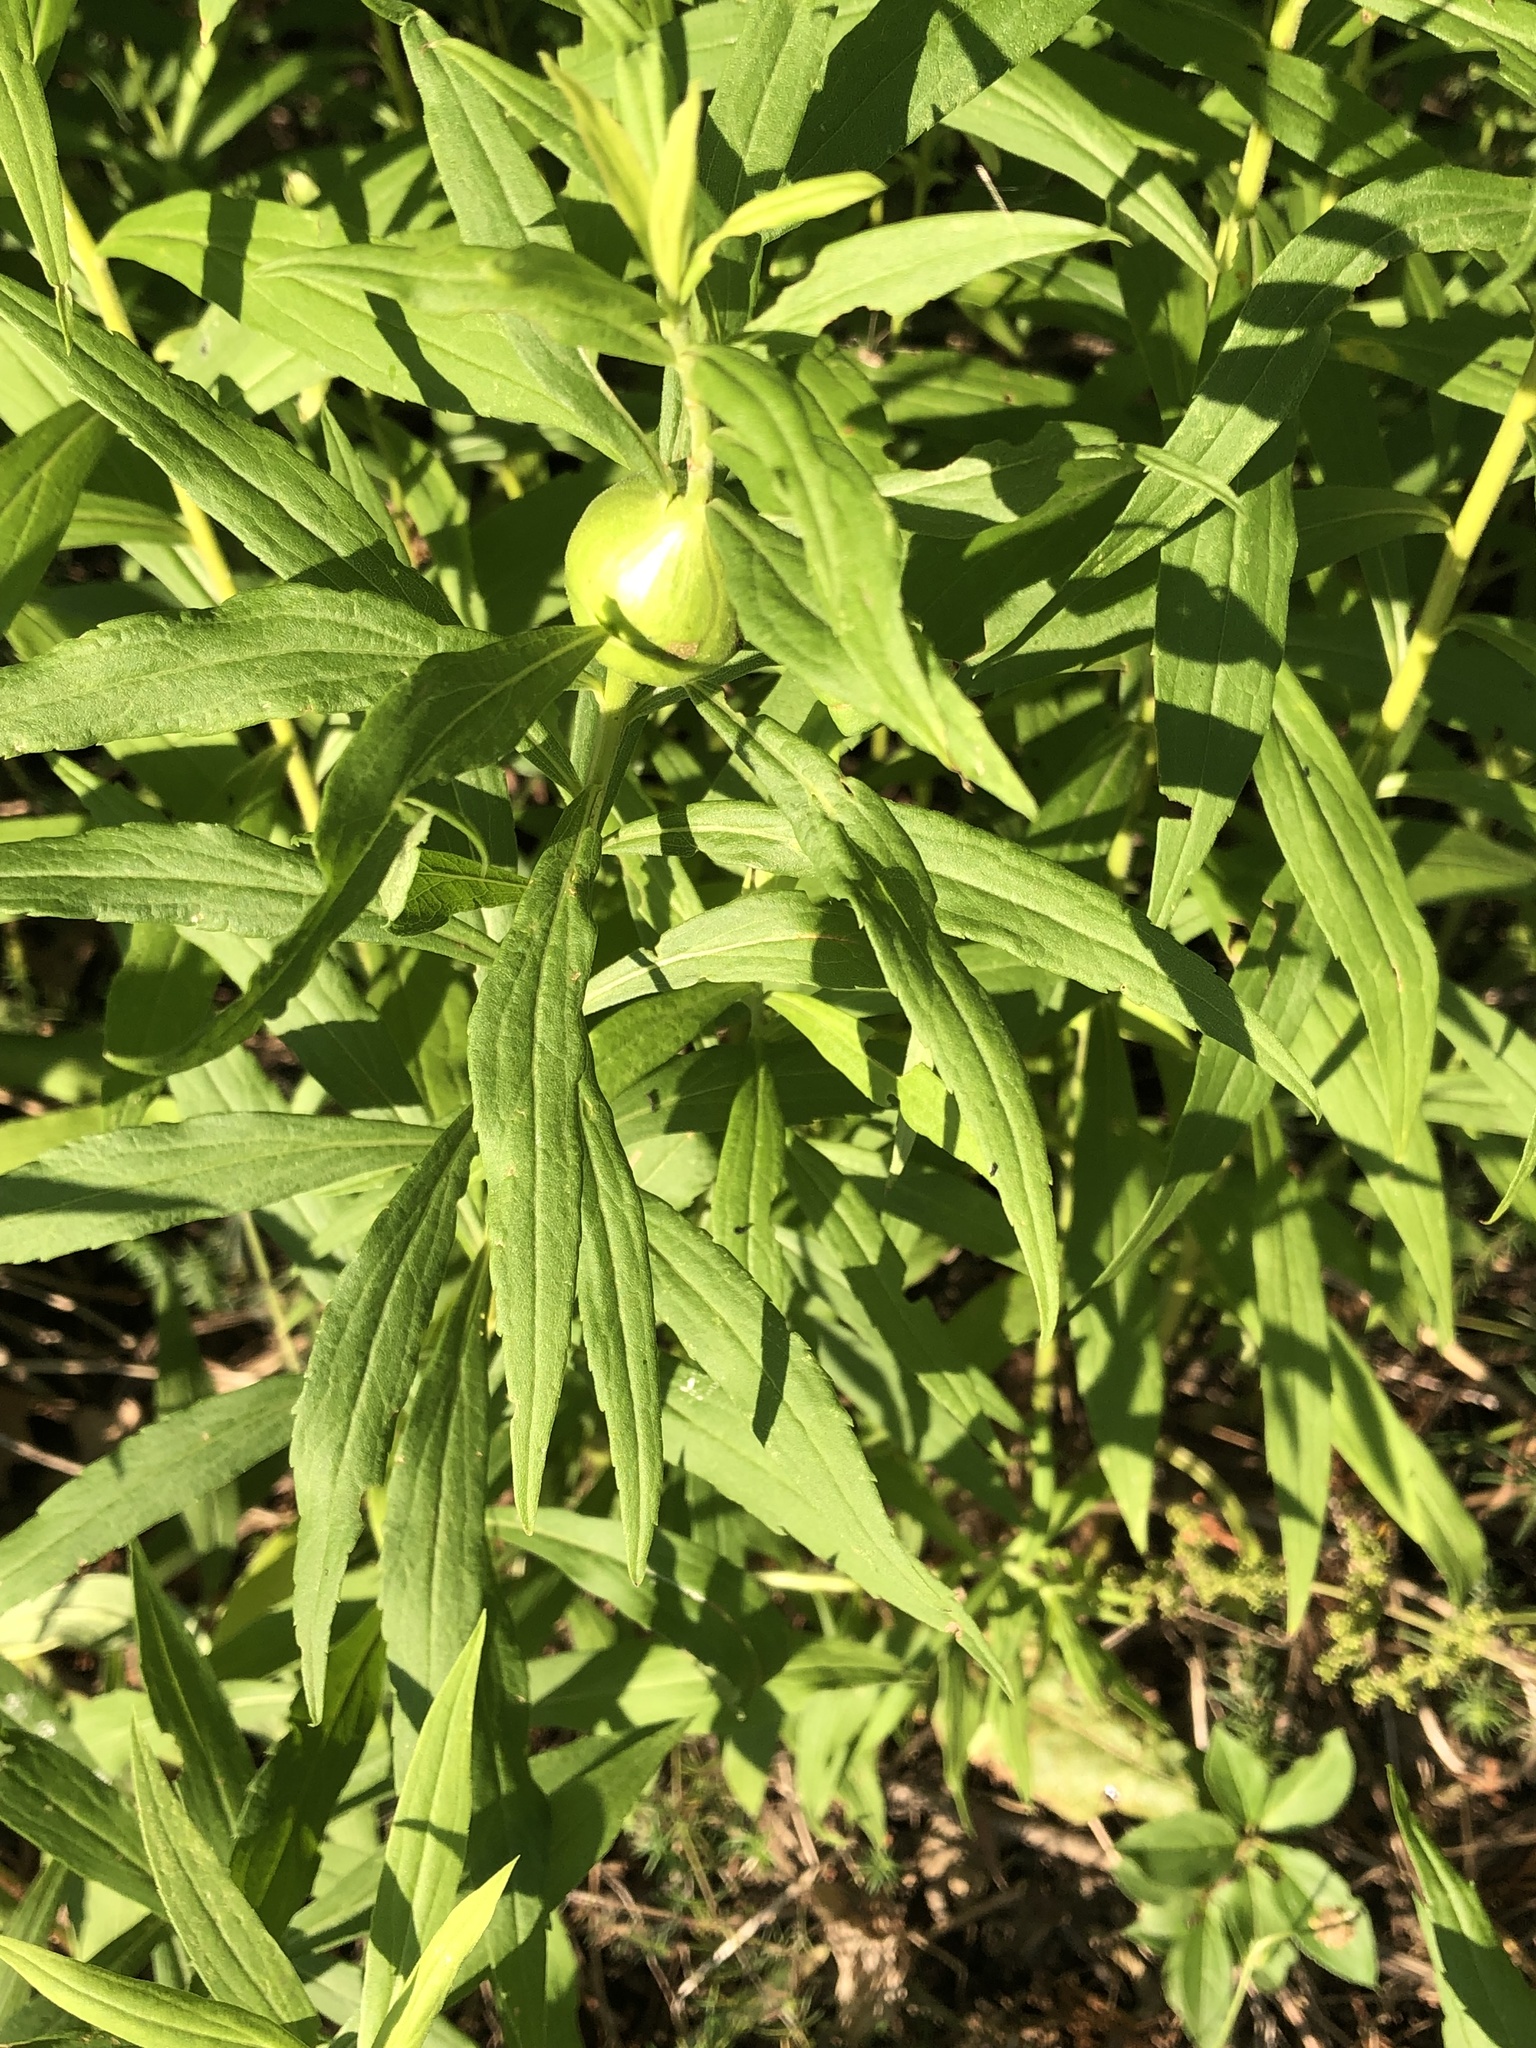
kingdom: Animalia
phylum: Arthropoda
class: Insecta
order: Diptera
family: Tephritidae
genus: Eurosta
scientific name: Eurosta solidaginis
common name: Goldenrod gall fly
